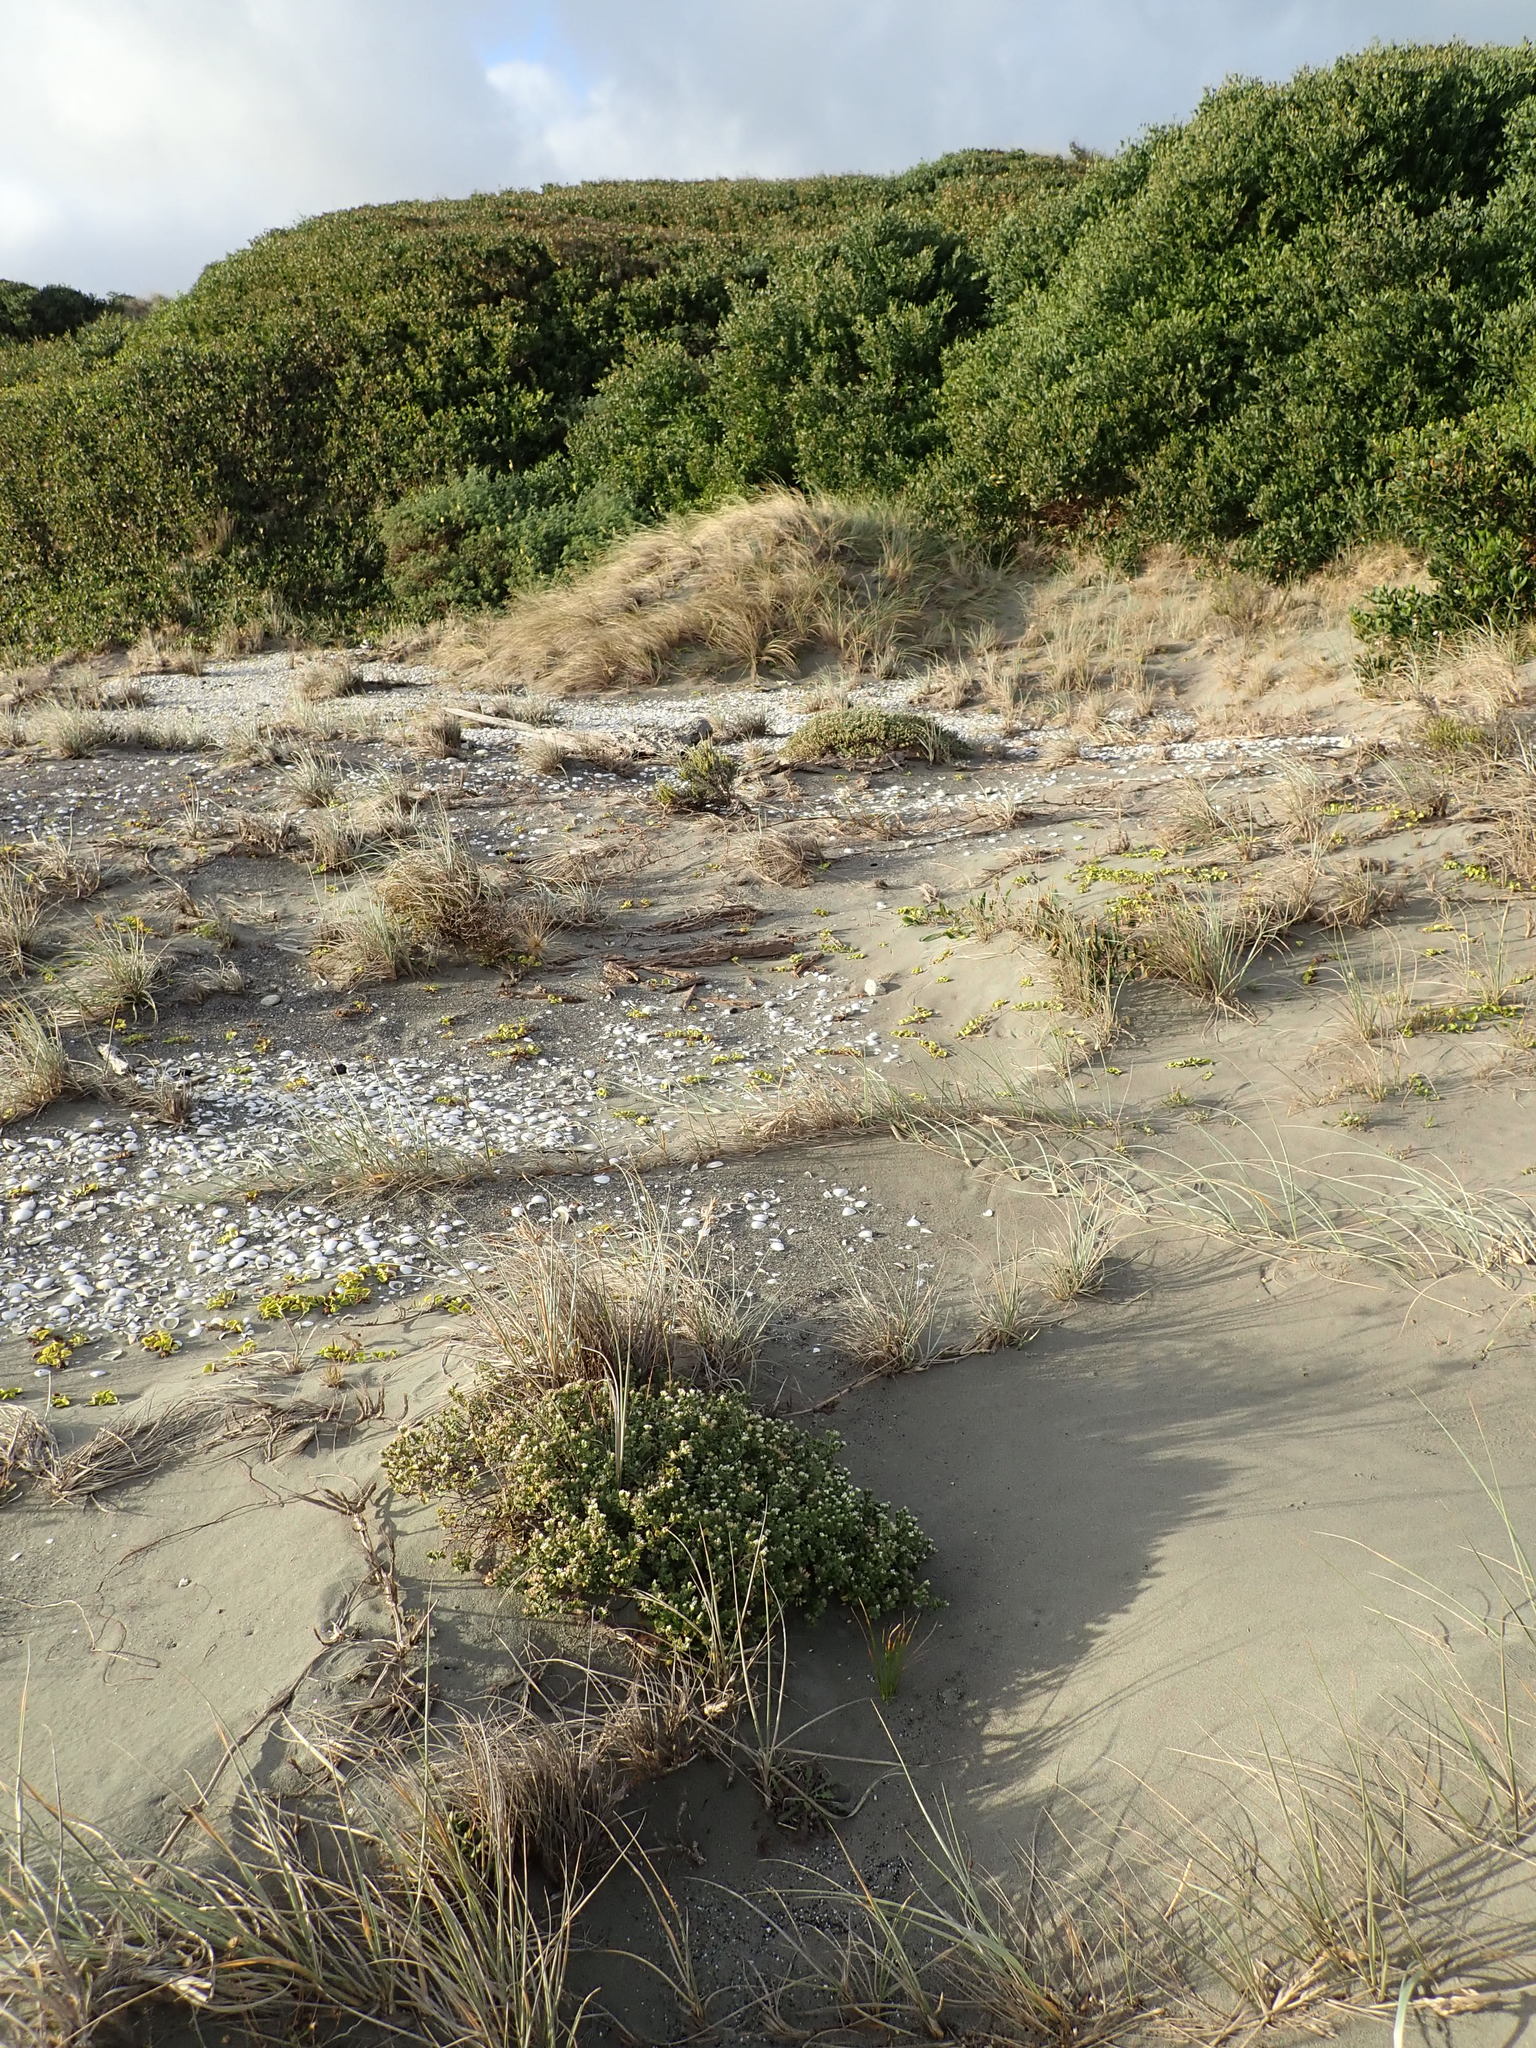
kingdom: Plantae
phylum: Tracheophyta
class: Magnoliopsida
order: Malvales
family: Thymelaeaceae
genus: Pimelea
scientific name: Pimelea villosa
